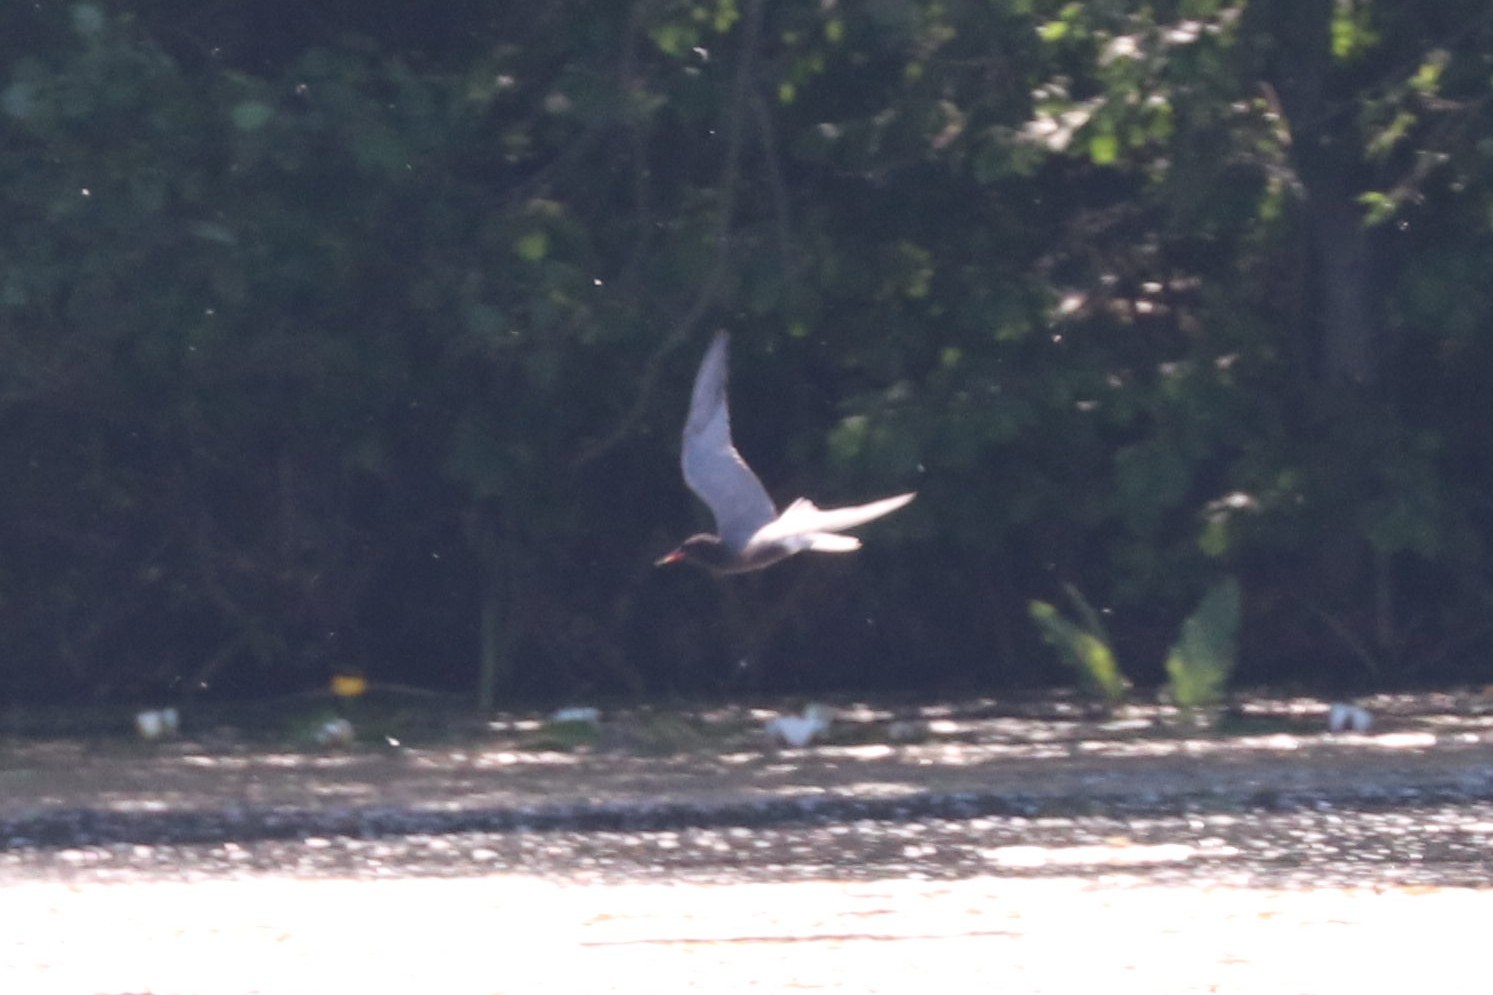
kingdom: Animalia
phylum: Chordata
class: Aves
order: Charadriiformes
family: Laridae
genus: Chlidonias
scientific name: Chlidonias niger
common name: Black tern
